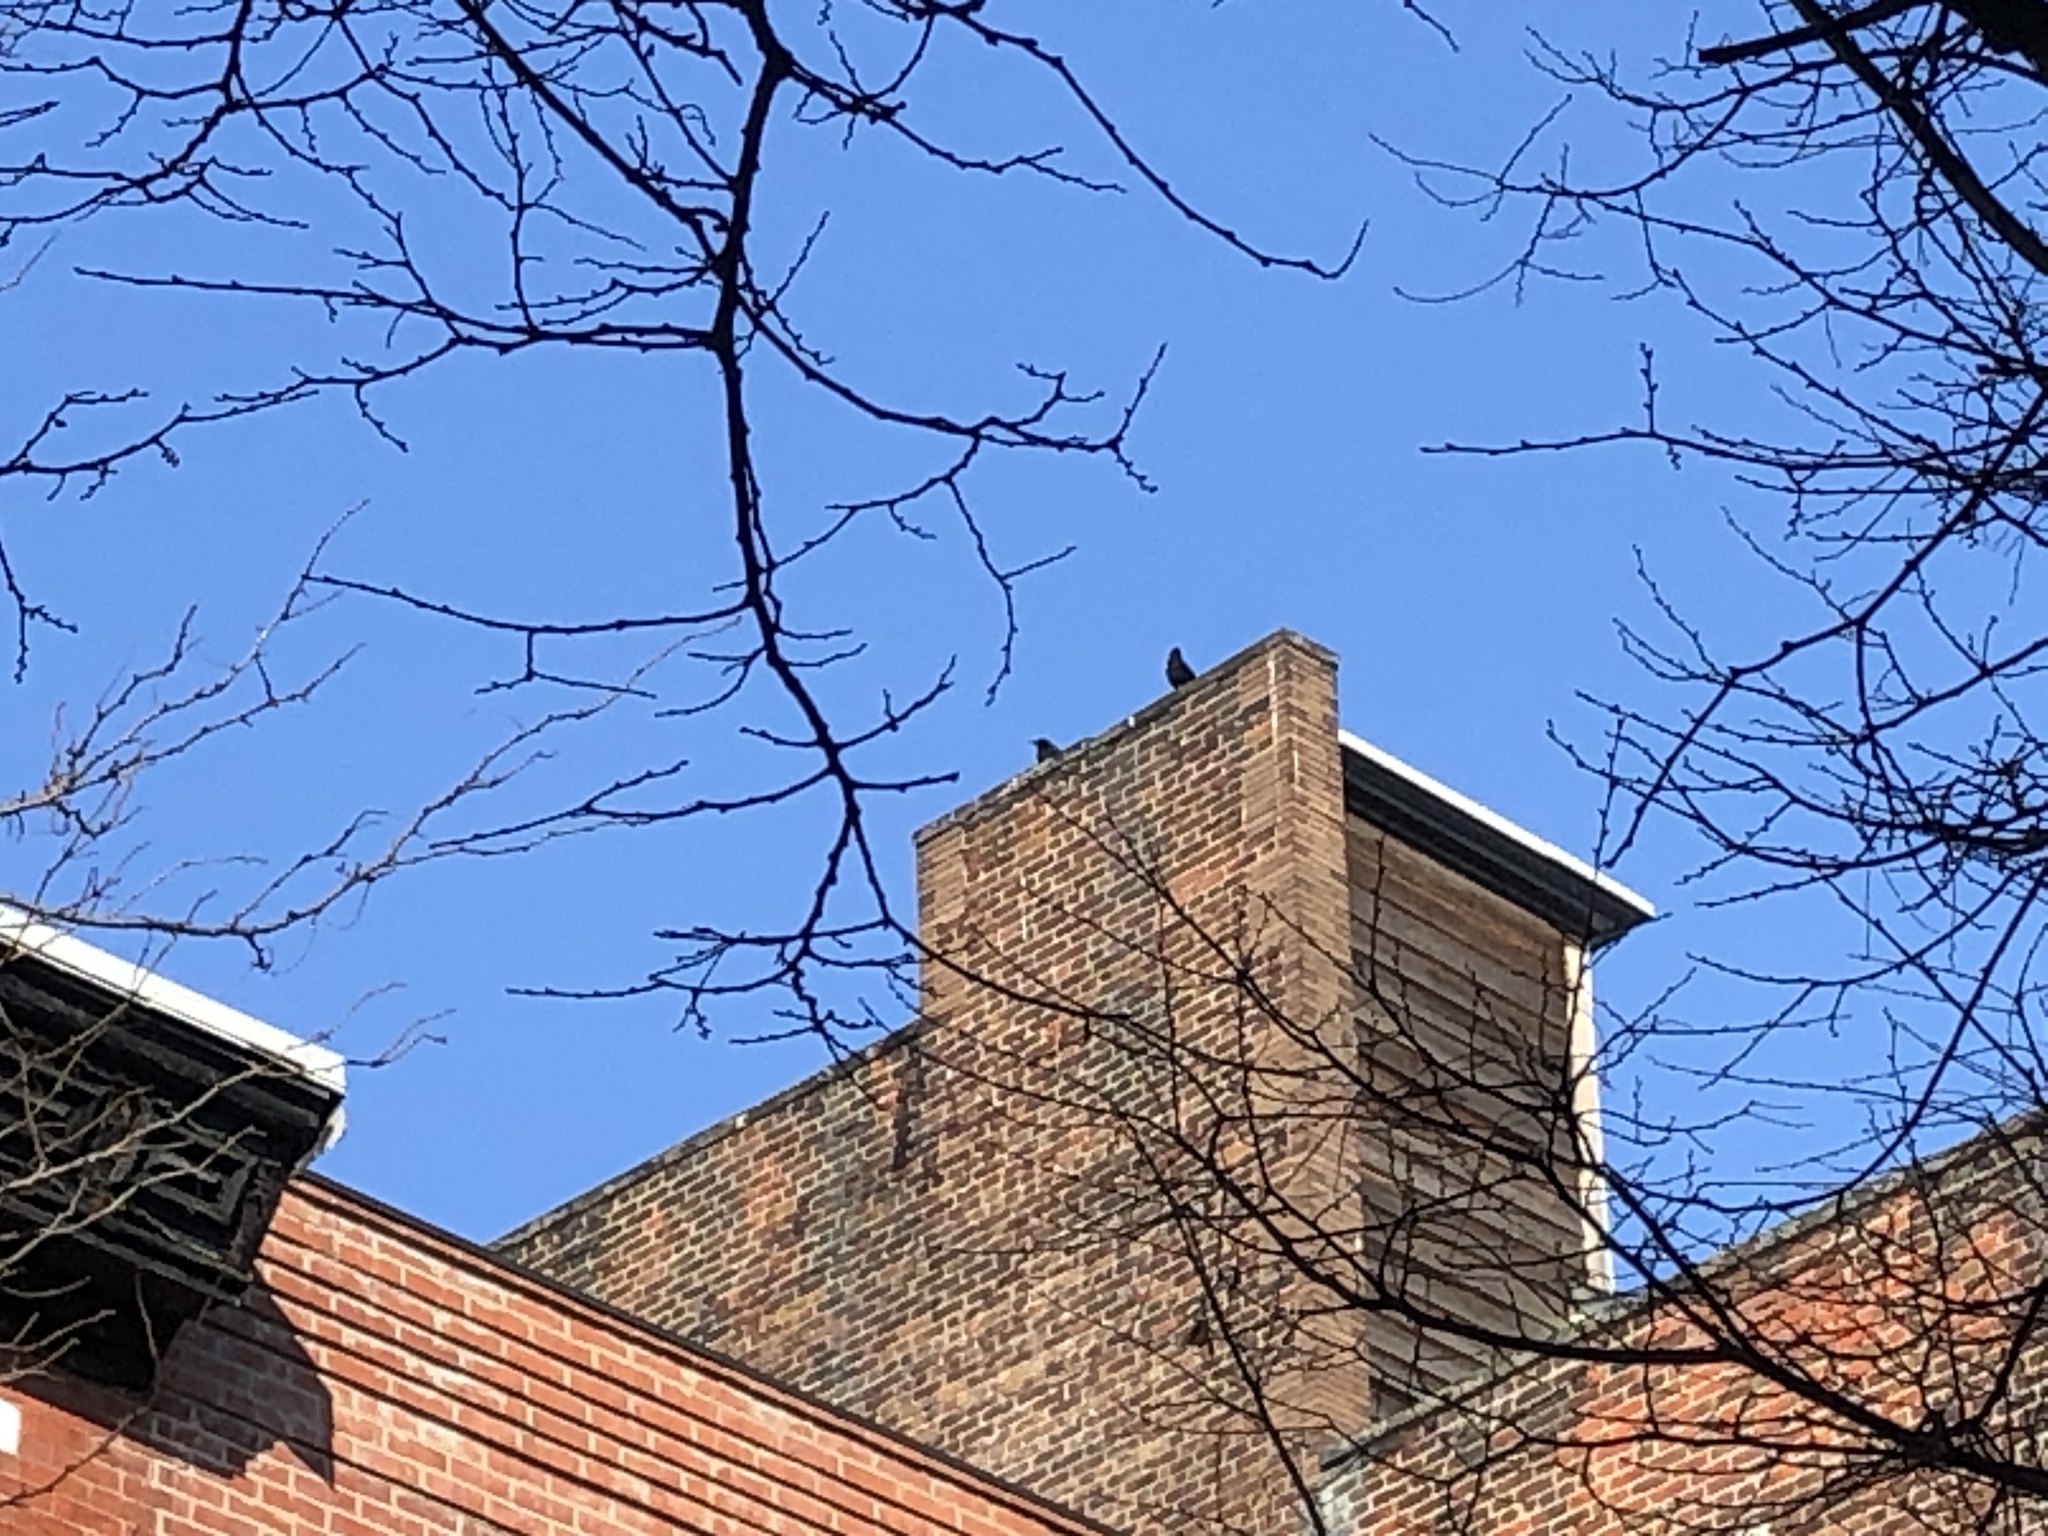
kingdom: Animalia
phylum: Chordata
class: Aves
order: Passeriformes
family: Corvidae
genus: Corvus
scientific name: Corvus brachyrhynchos
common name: American crow
